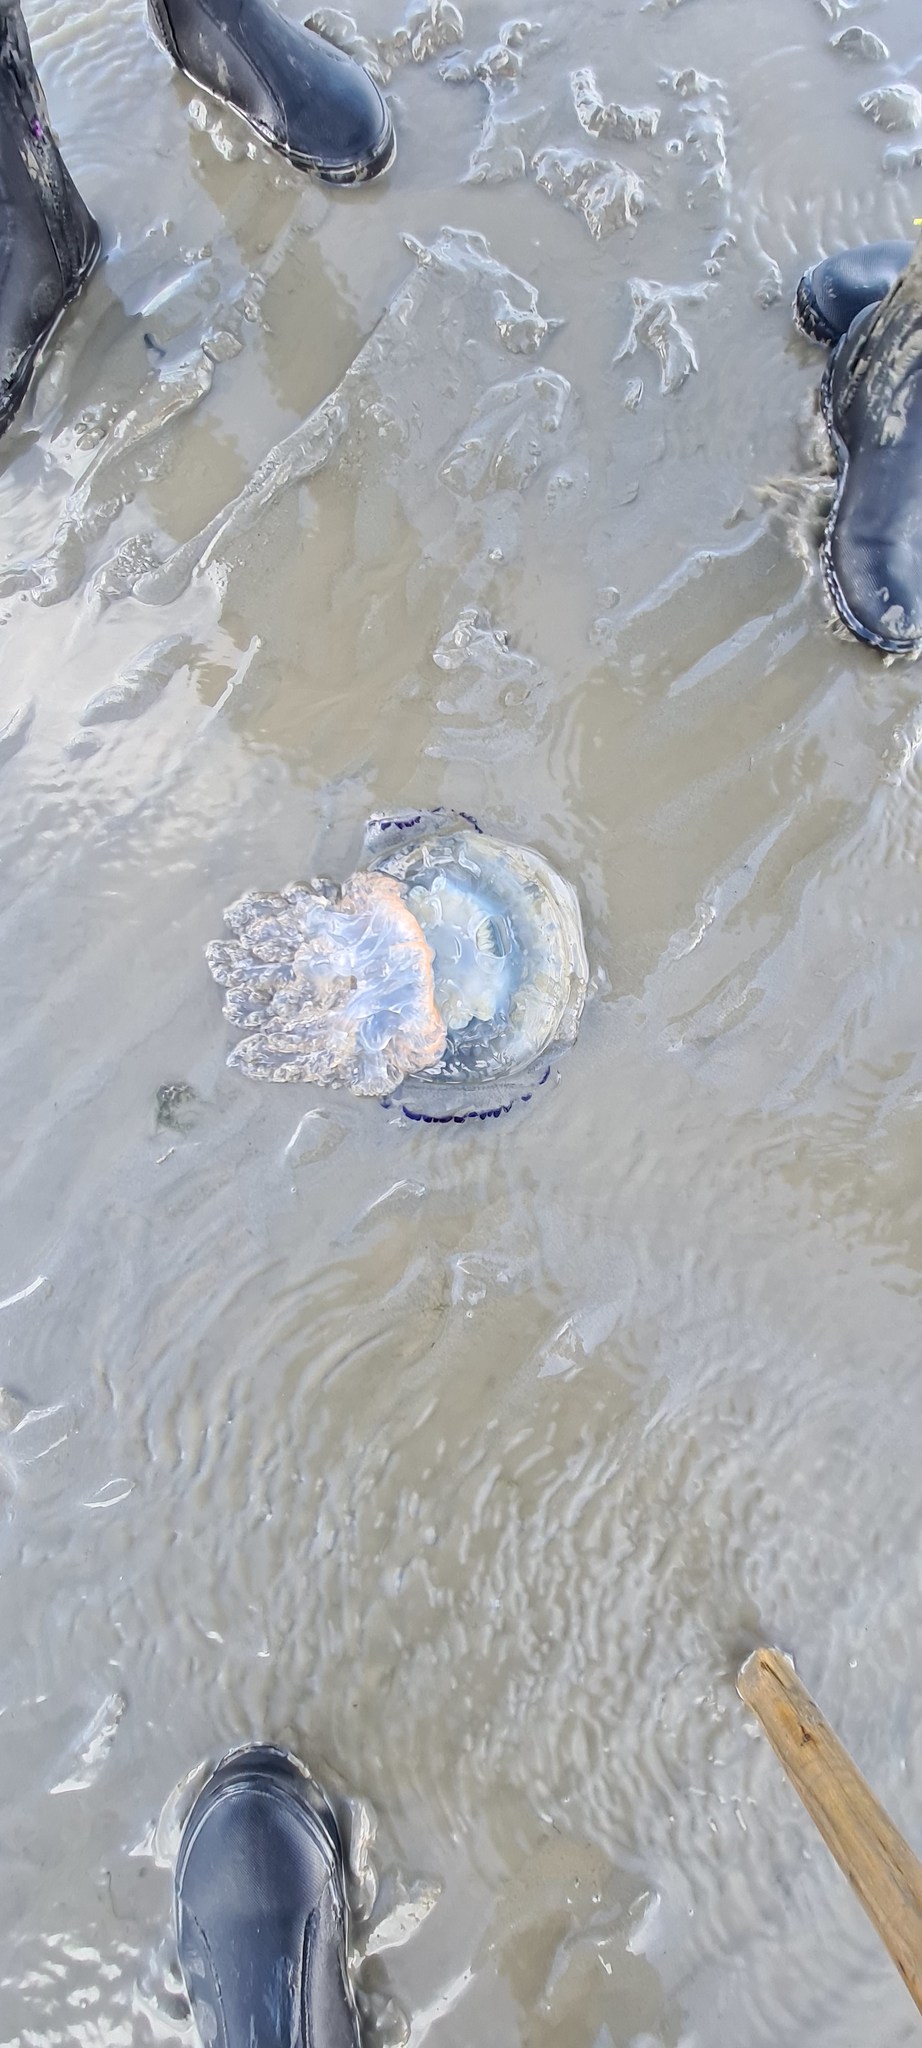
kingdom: Animalia
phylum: Cnidaria
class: Scyphozoa
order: Rhizostomeae
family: Rhizostomatidae
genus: Rhizostoma
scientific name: Rhizostoma octopus
